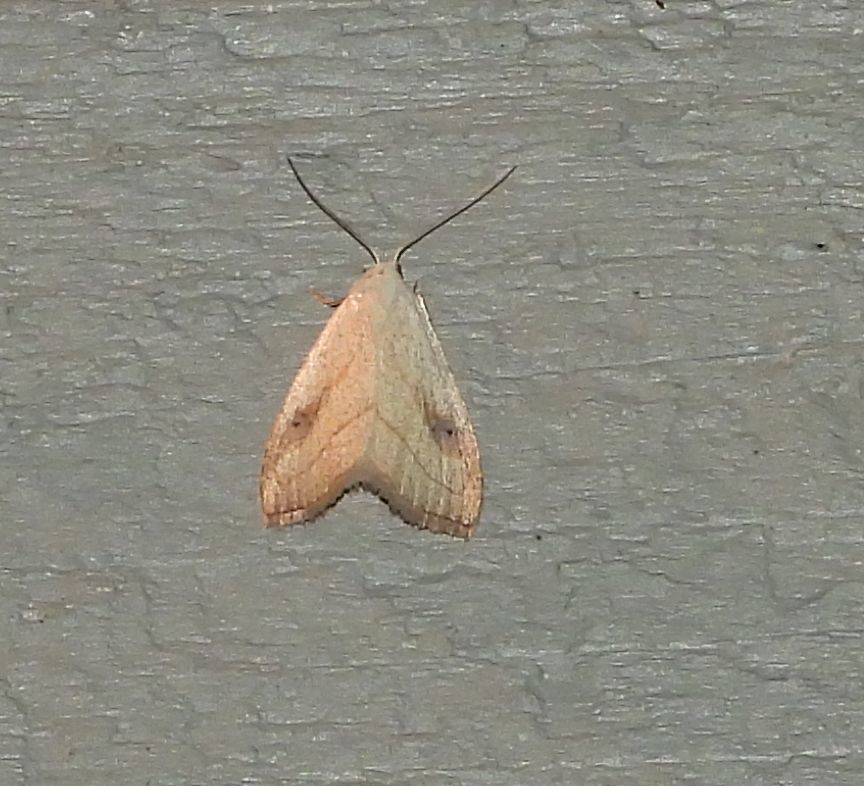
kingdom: Animalia
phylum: Arthropoda
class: Insecta
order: Lepidoptera
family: Erebidae
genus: Rivula
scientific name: Rivula propinqualis
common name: Spotted grass moth
